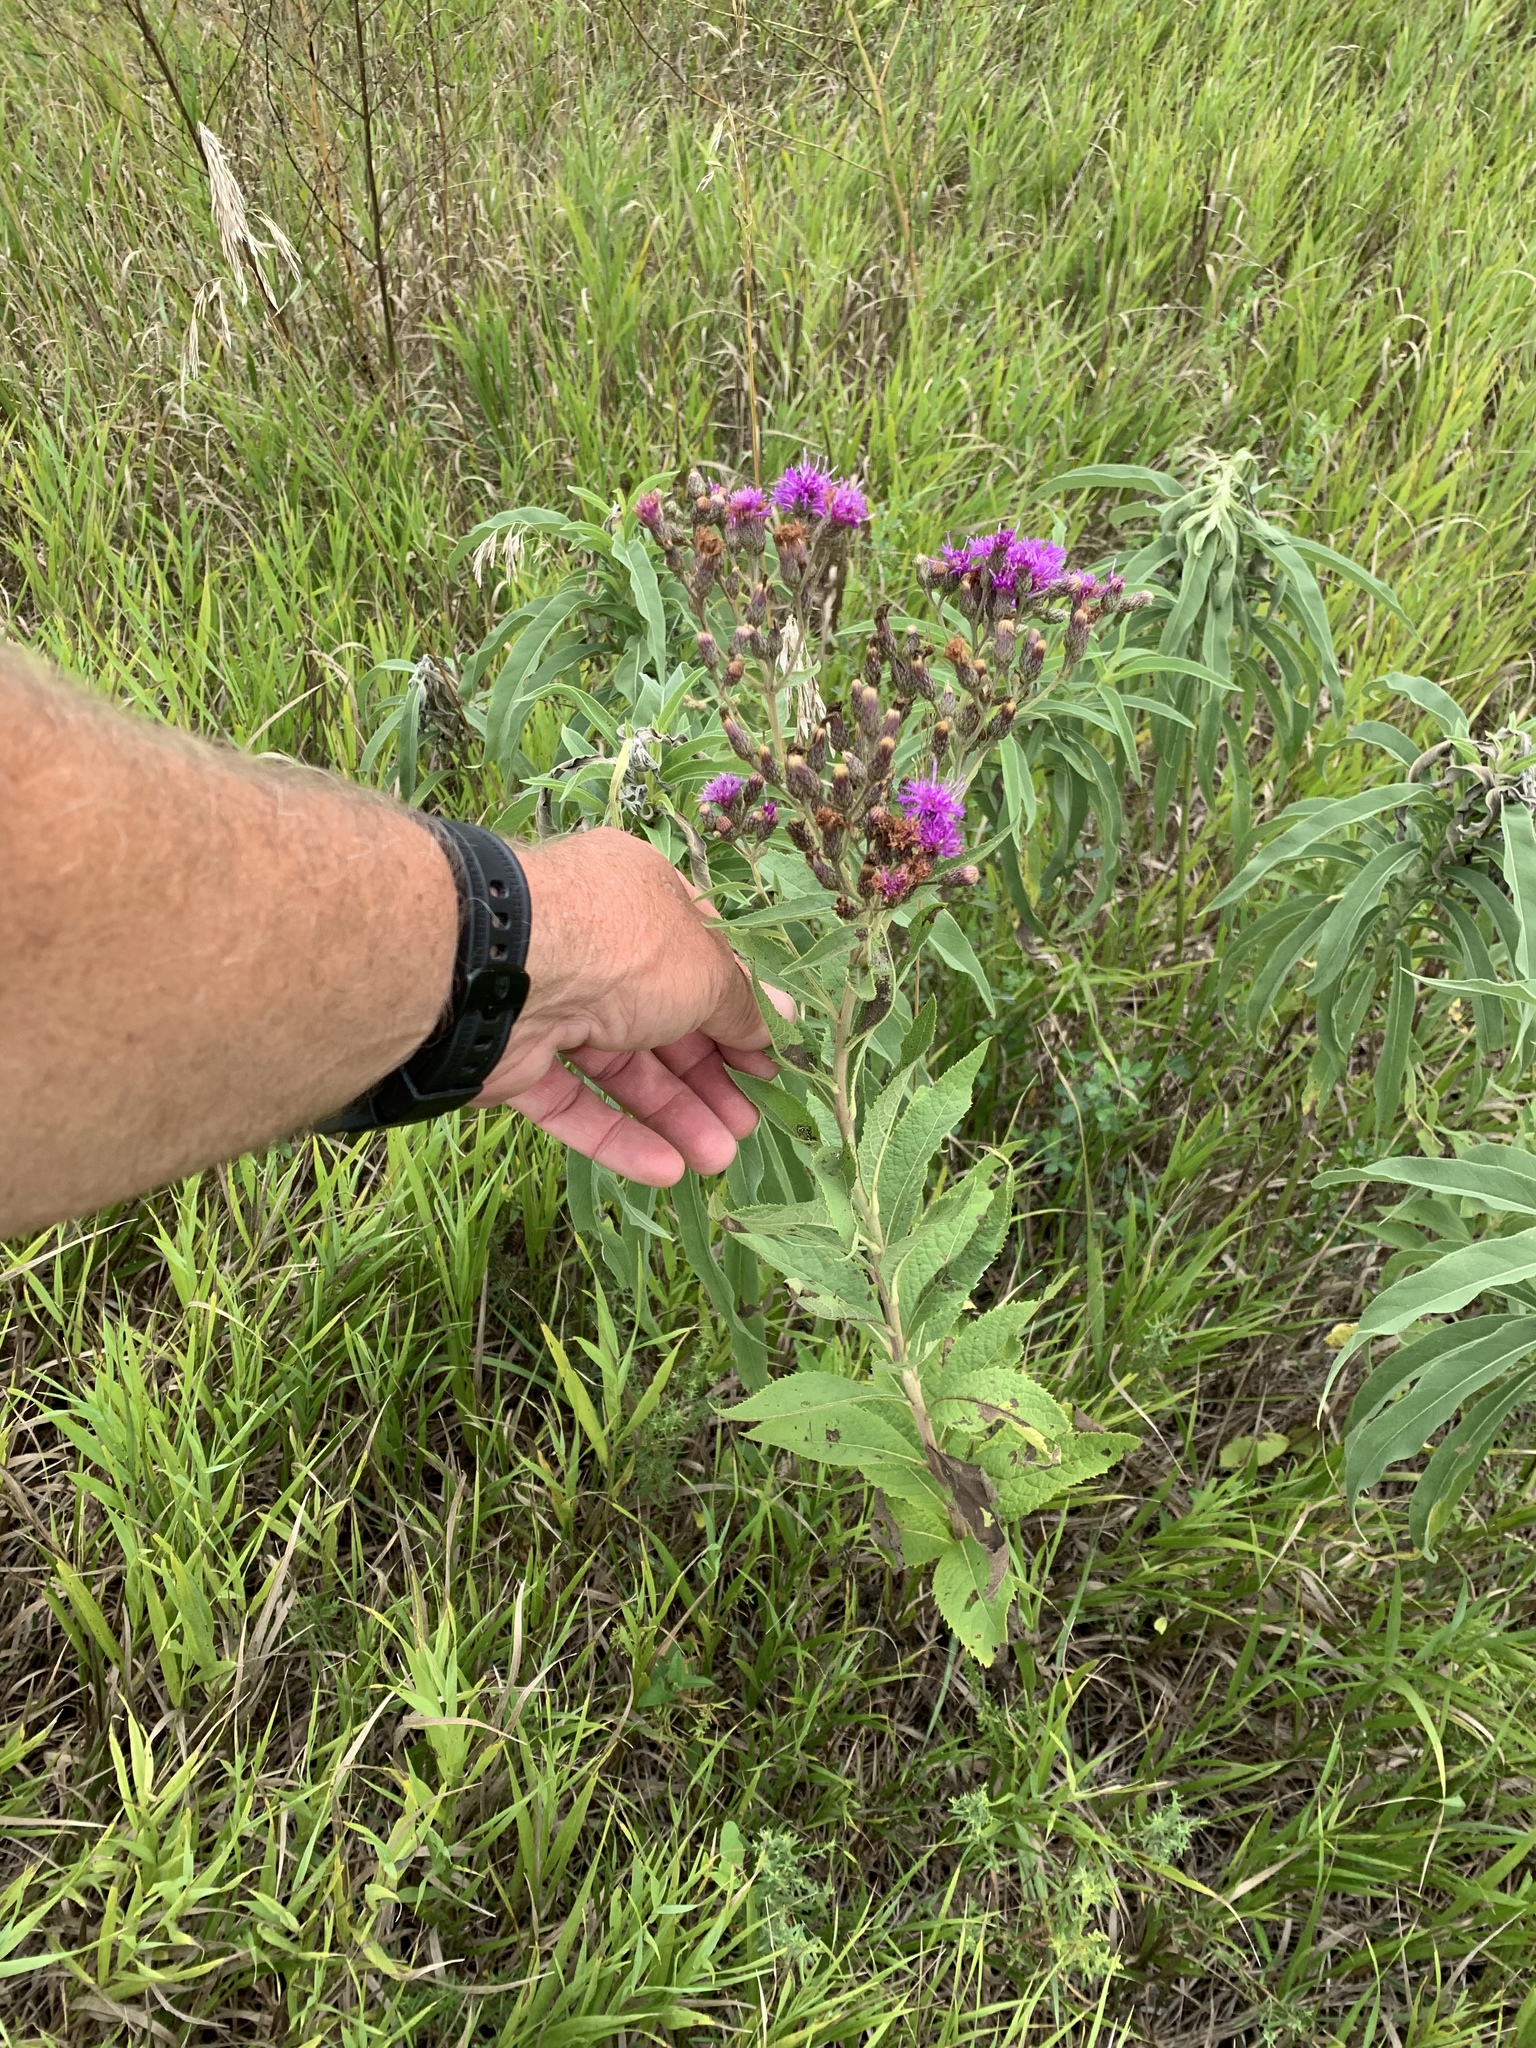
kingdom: Plantae
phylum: Tracheophyta
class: Magnoliopsida
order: Asterales
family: Asteraceae
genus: Vernonia
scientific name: Vernonia baldwinii
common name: Western ironweed
